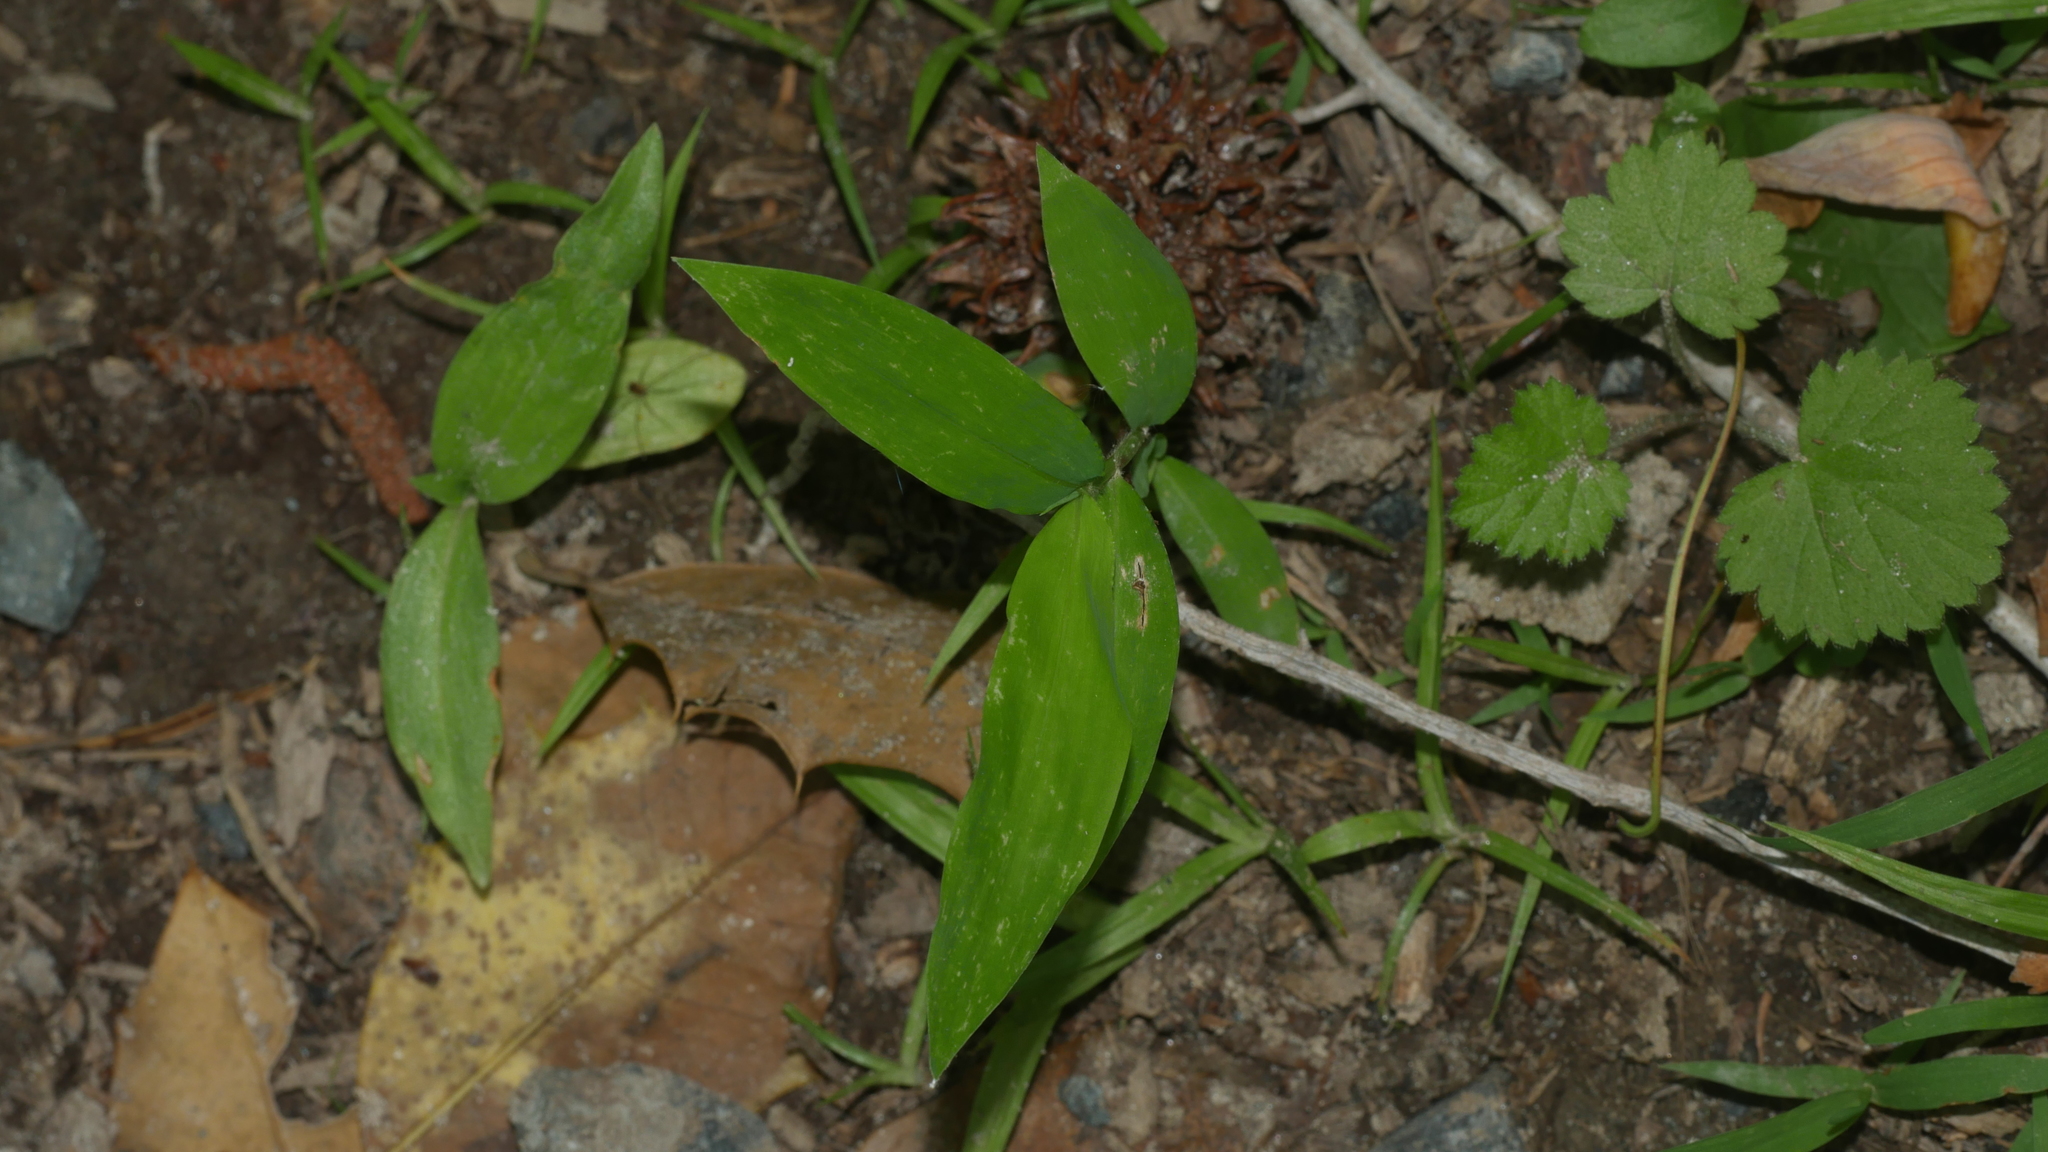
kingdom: Plantae
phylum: Tracheophyta
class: Liliopsida
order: Poales
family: Poaceae
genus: Microstegium
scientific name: Microstegium vimineum
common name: Japanese stiltgrass
